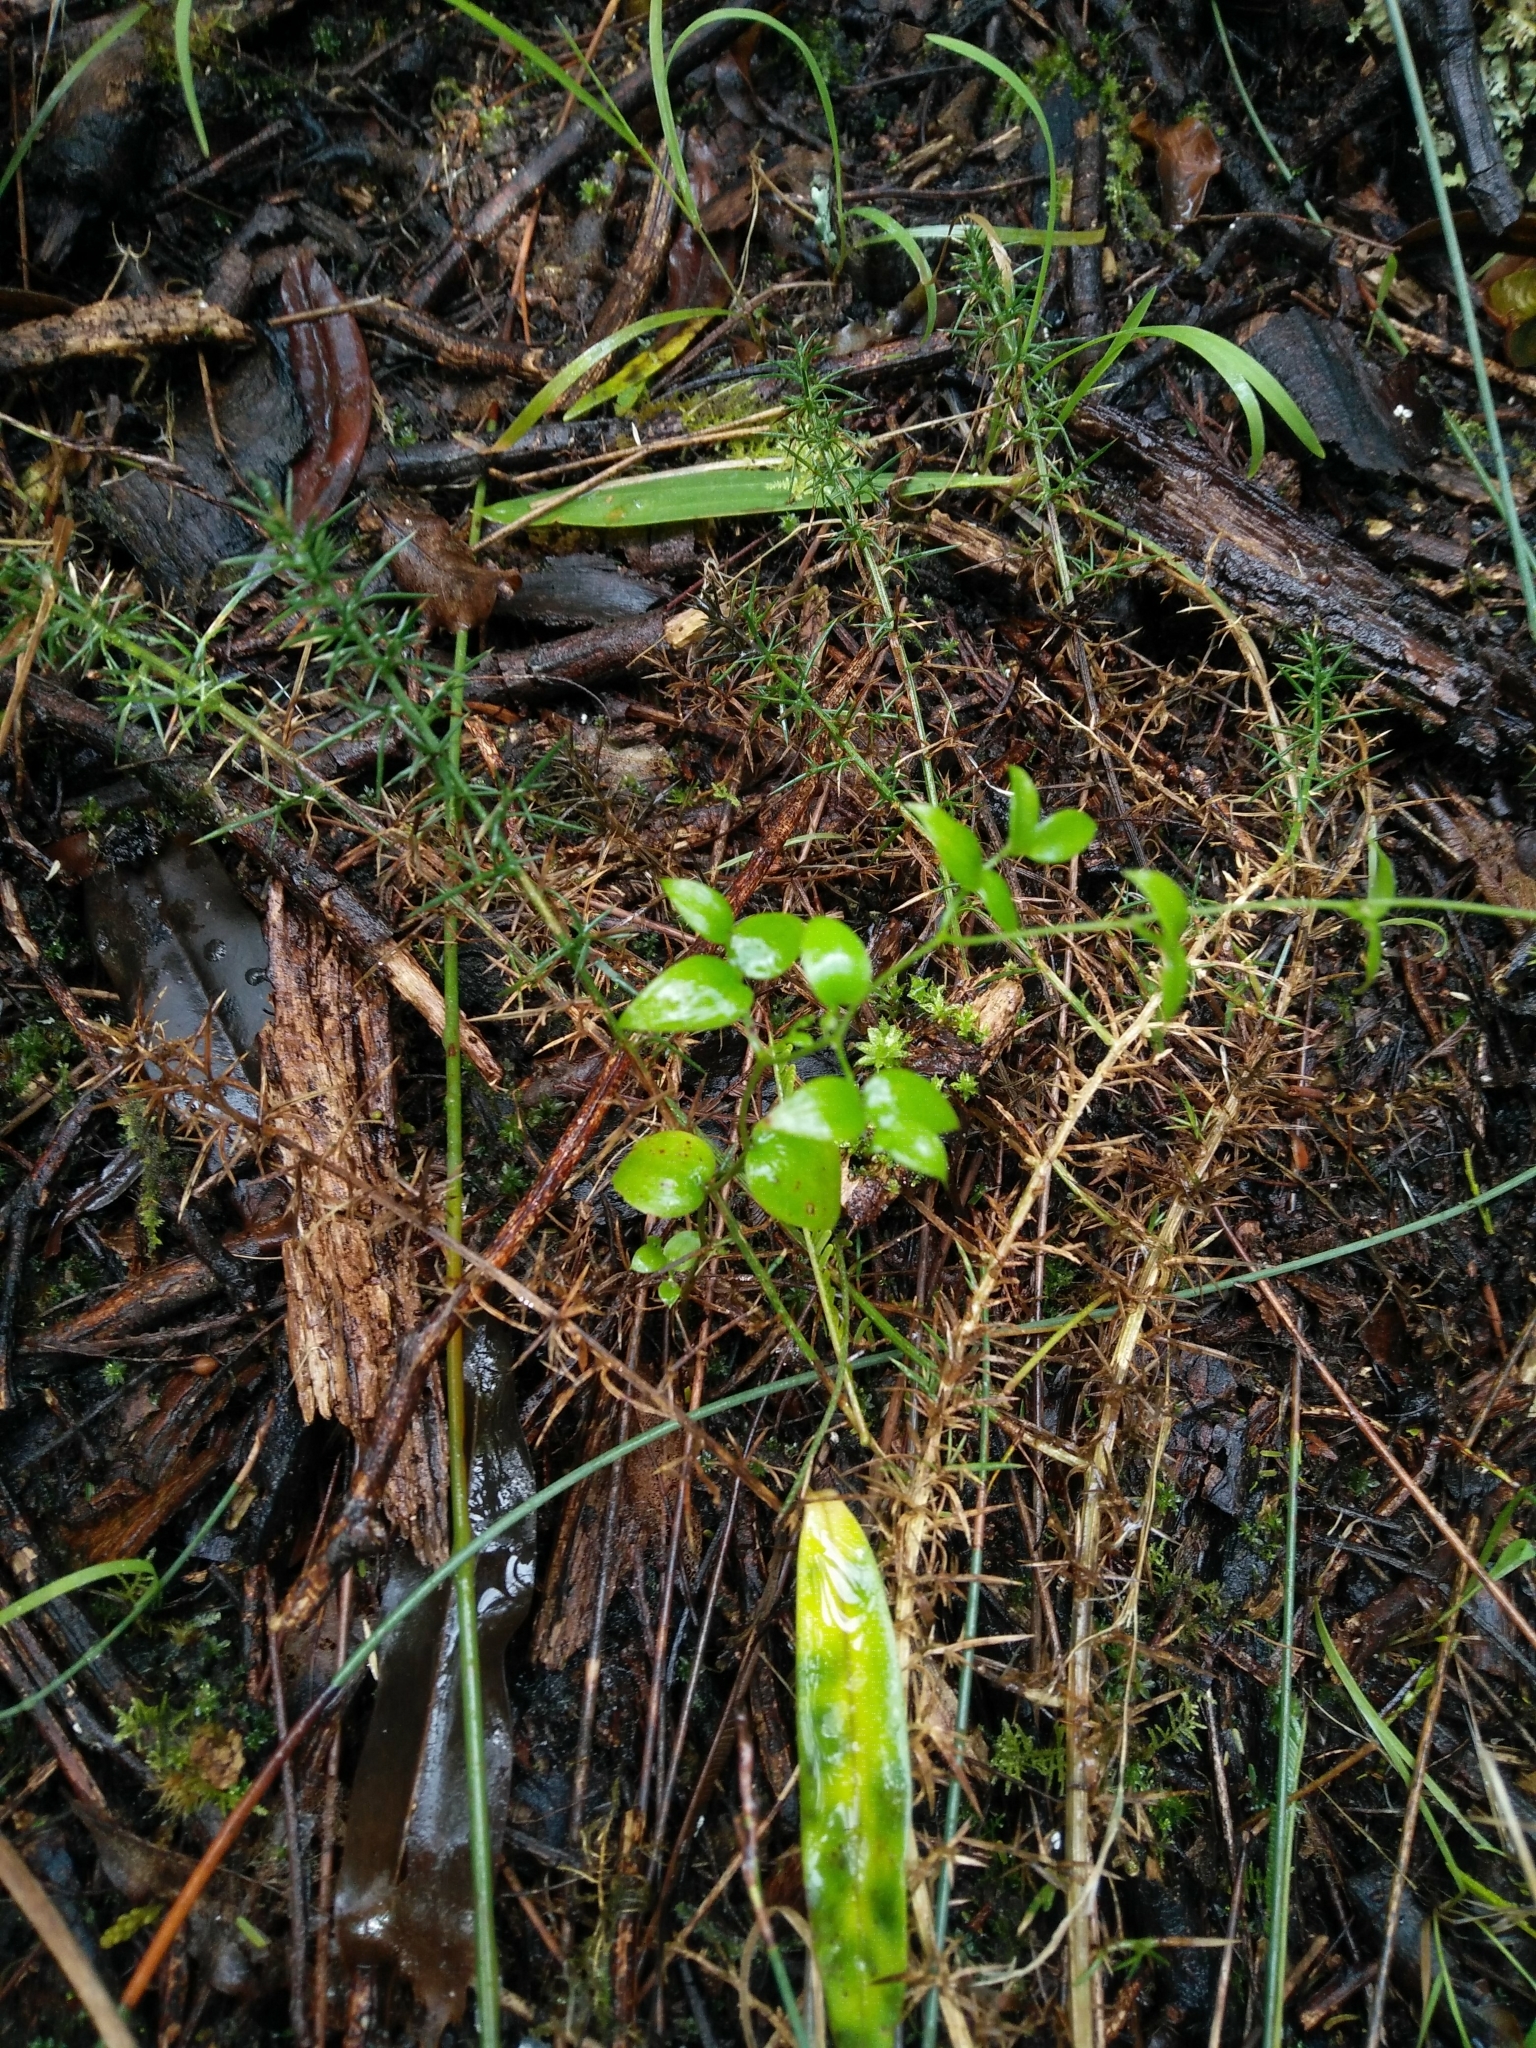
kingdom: Plantae
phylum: Tracheophyta
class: Liliopsida
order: Asparagales
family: Asparagaceae
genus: Asparagus
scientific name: Asparagus asparagoides
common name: African asparagus fern
